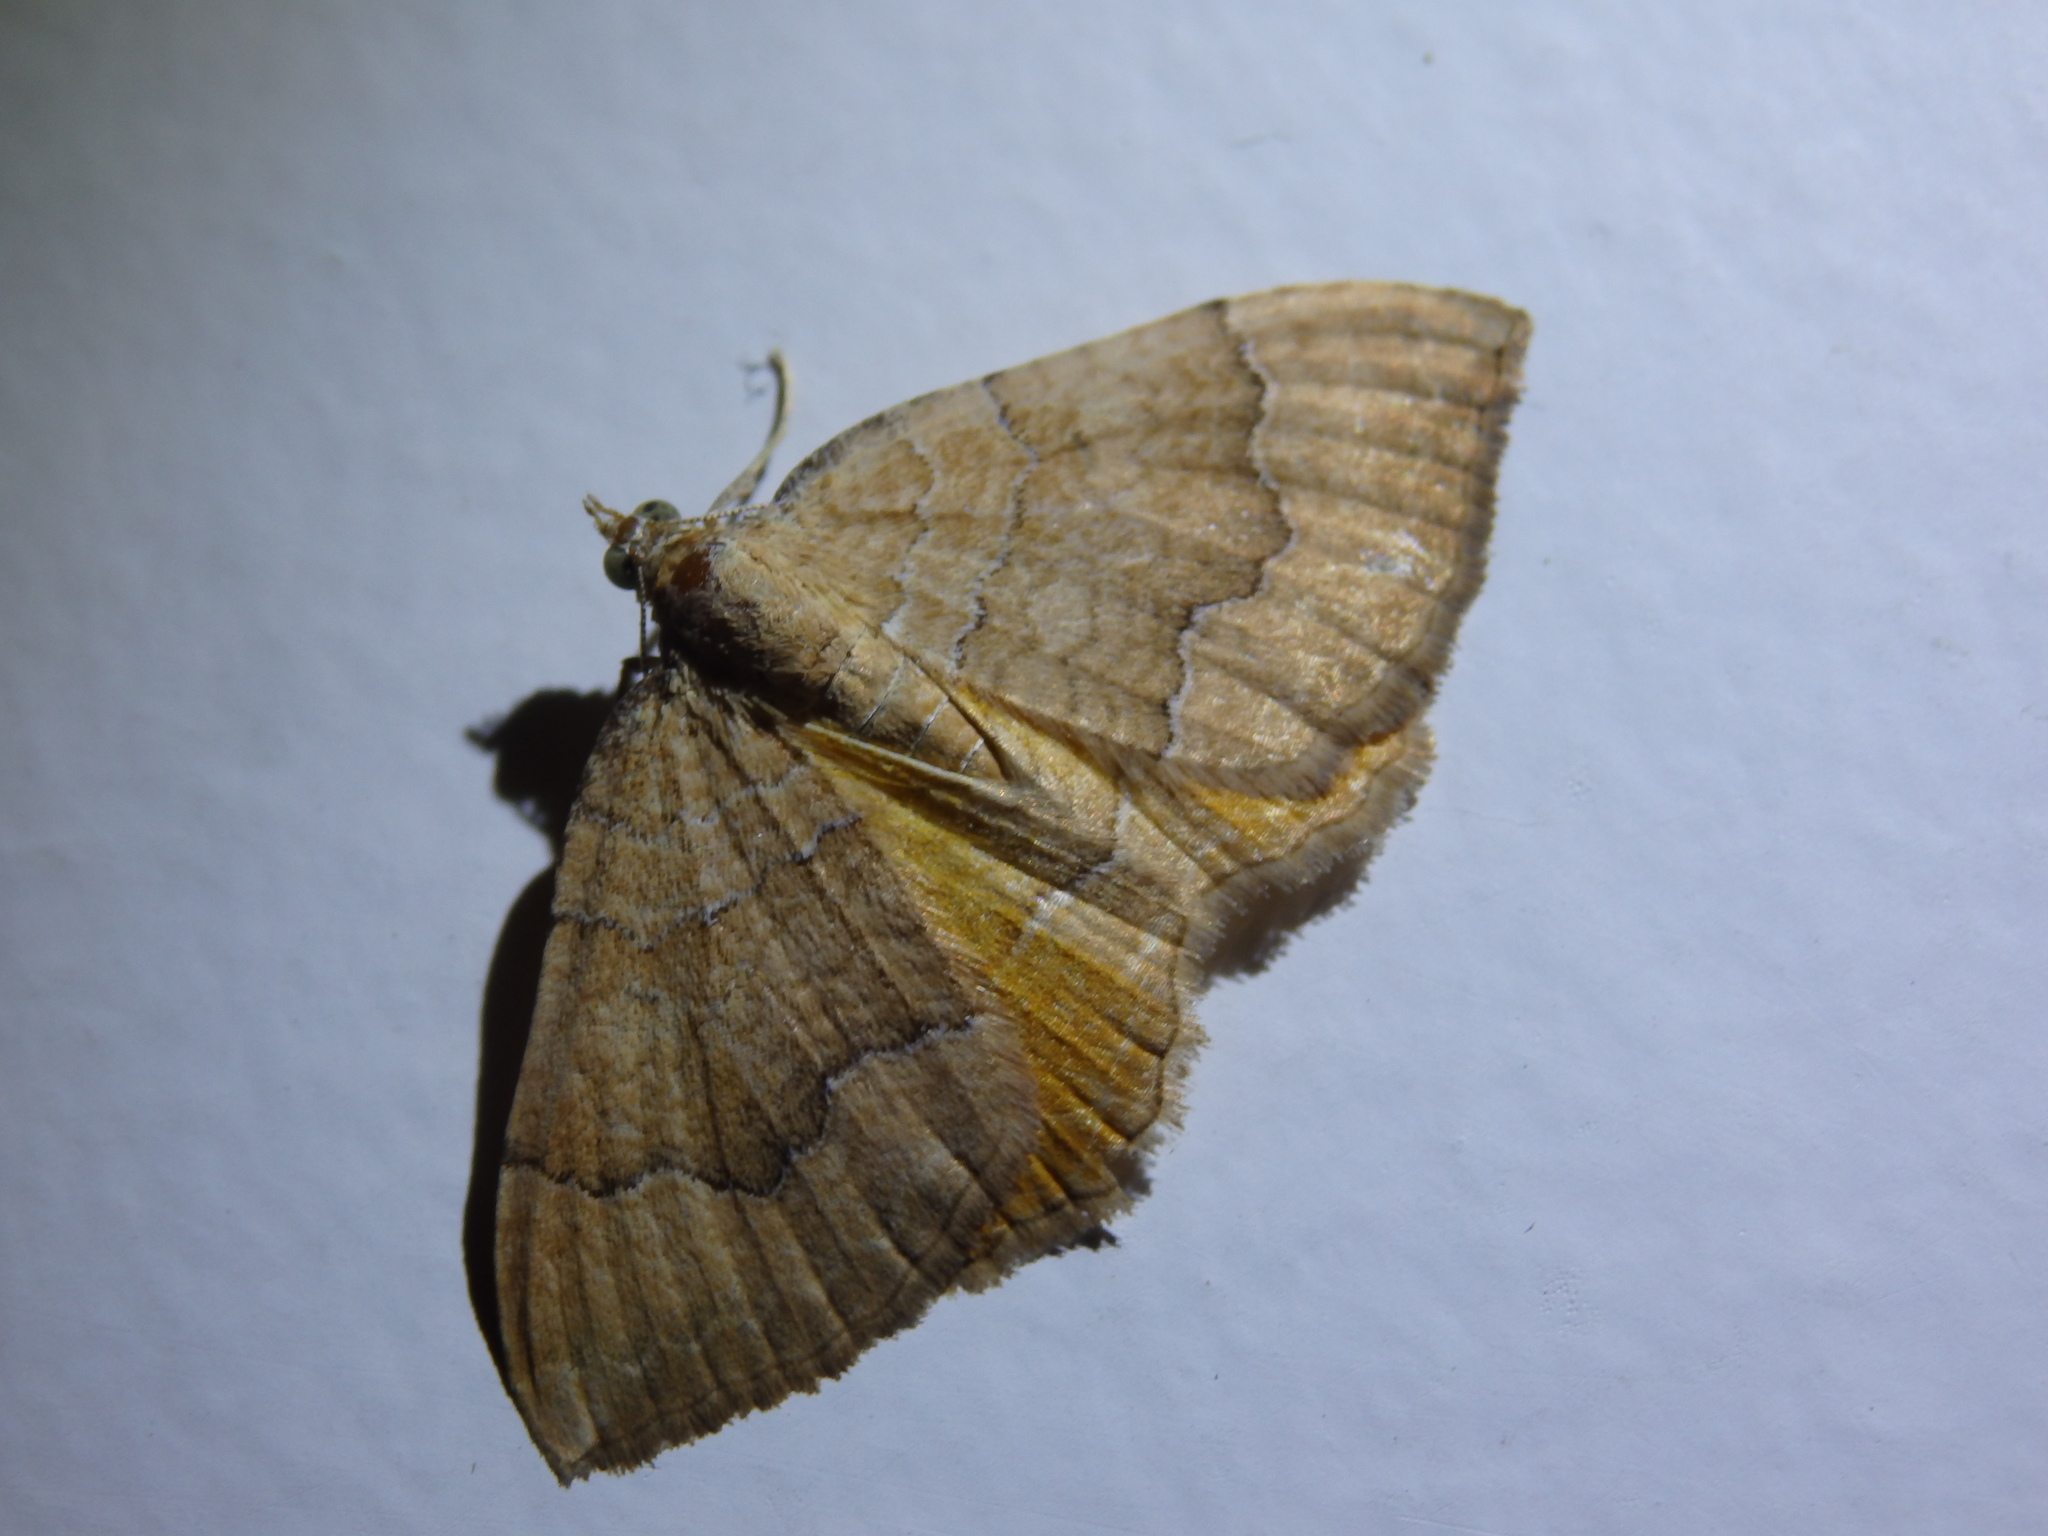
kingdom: Animalia
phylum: Arthropoda
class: Insecta
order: Lepidoptera
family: Geometridae
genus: Camptogramma
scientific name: Camptogramma bilineata
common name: Yellow shell
